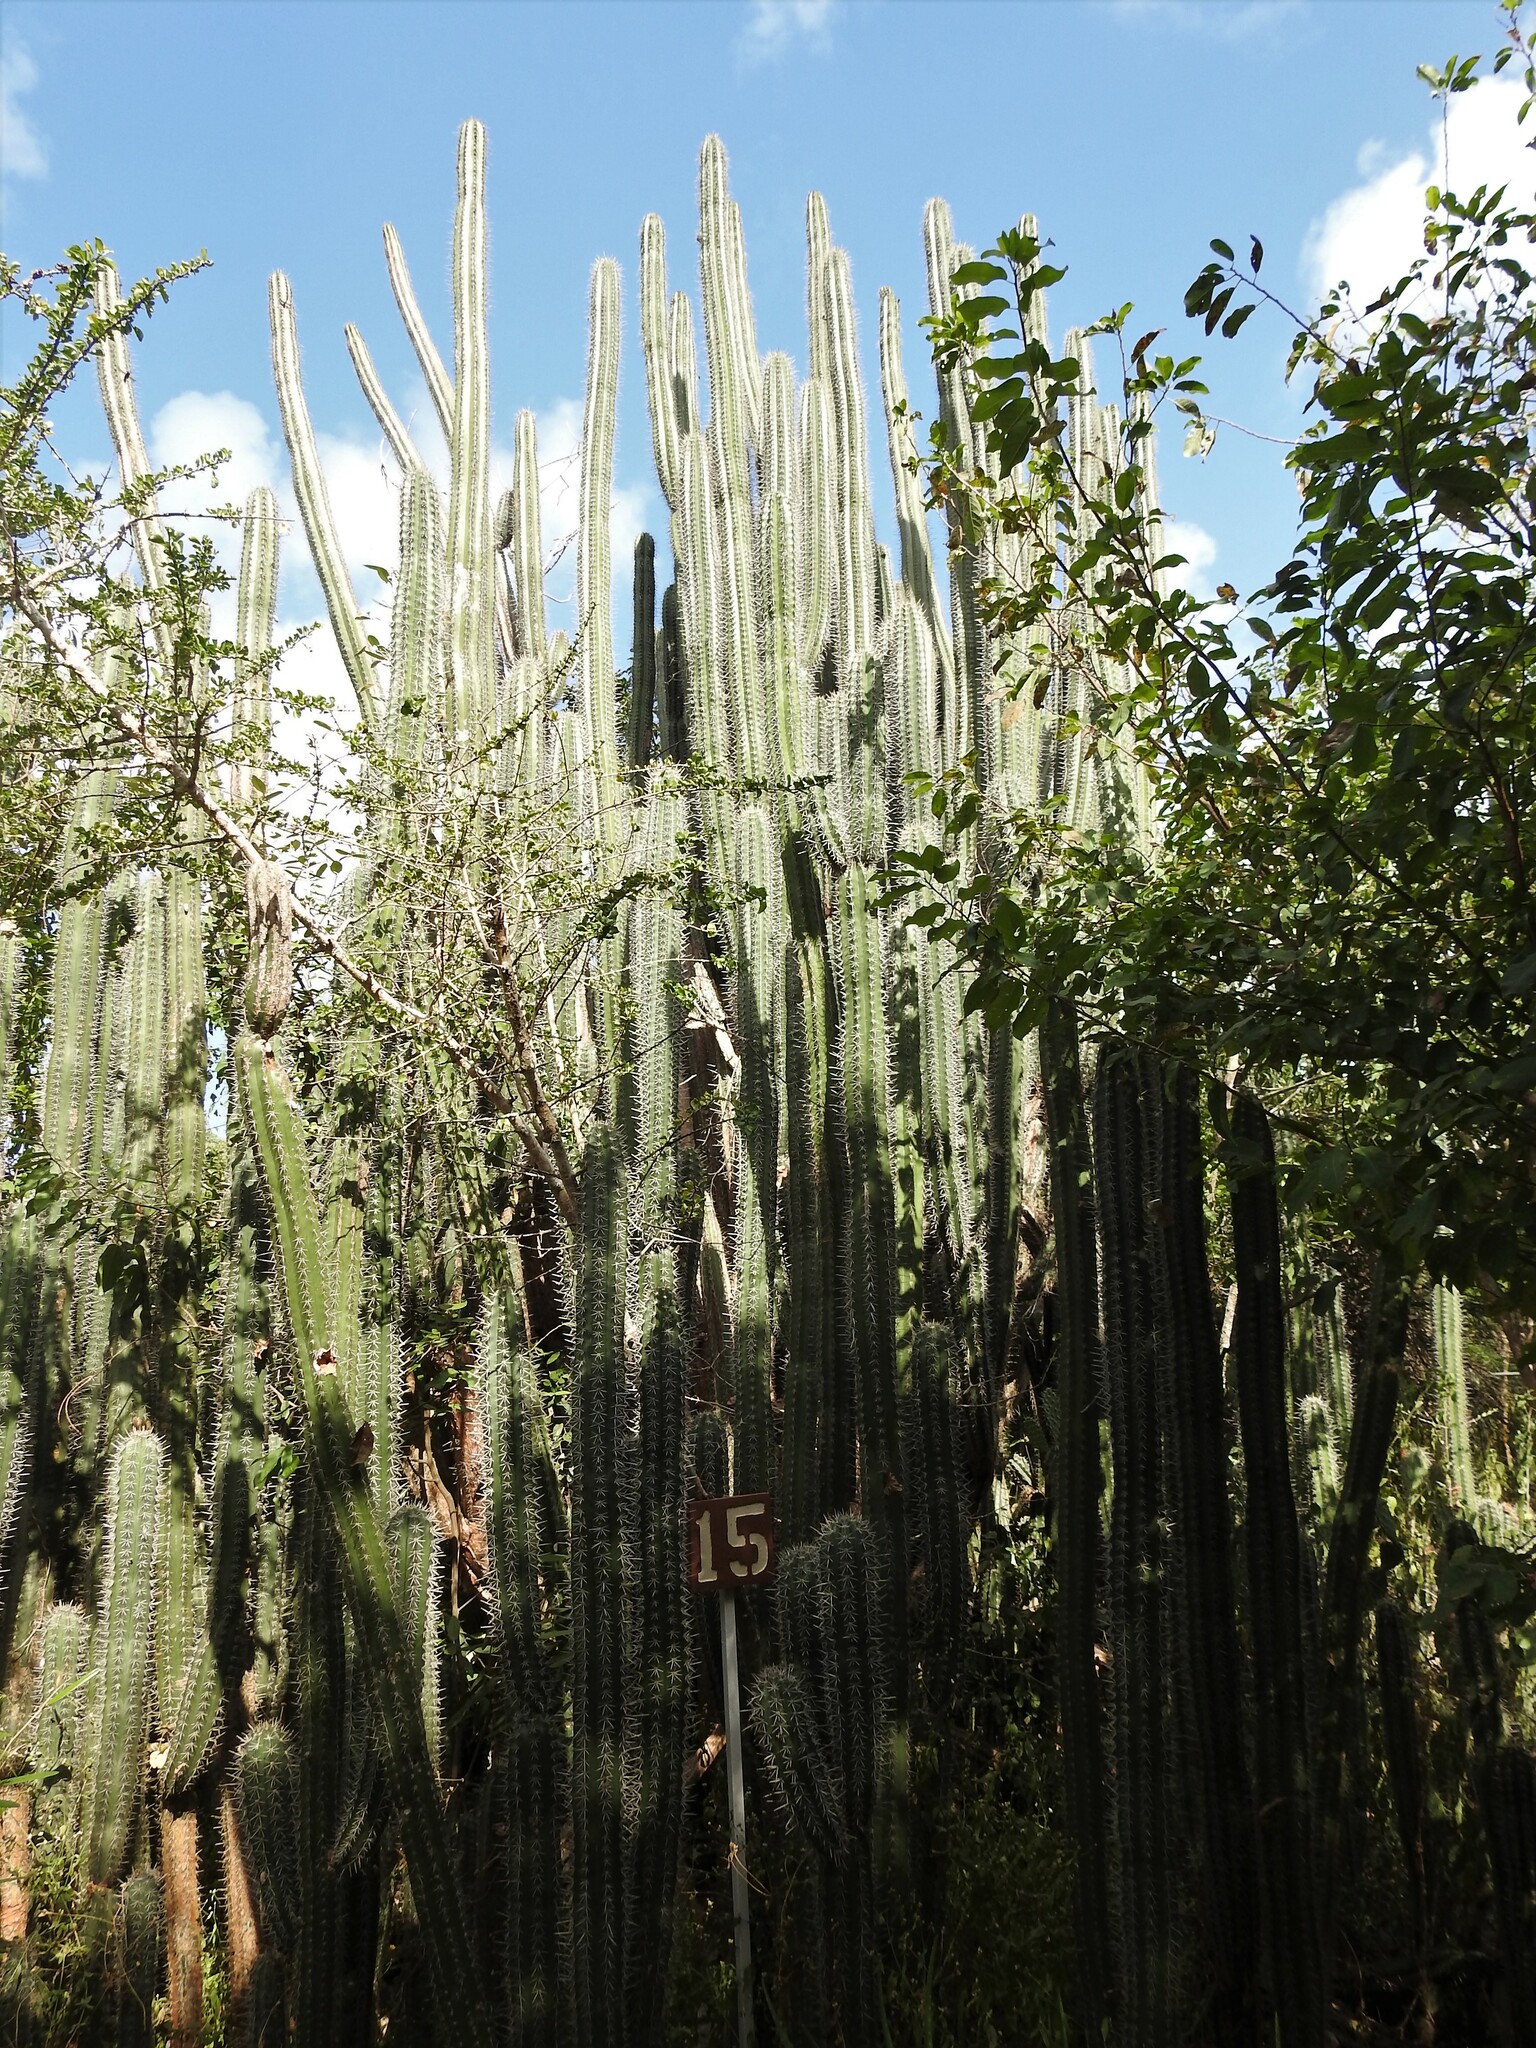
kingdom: Plantae
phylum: Tracheophyta
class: Magnoliopsida
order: Caryophyllales
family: Cactaceae
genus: Stenocereus
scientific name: Stenocereus griseus
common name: Tall candelabra cactus
